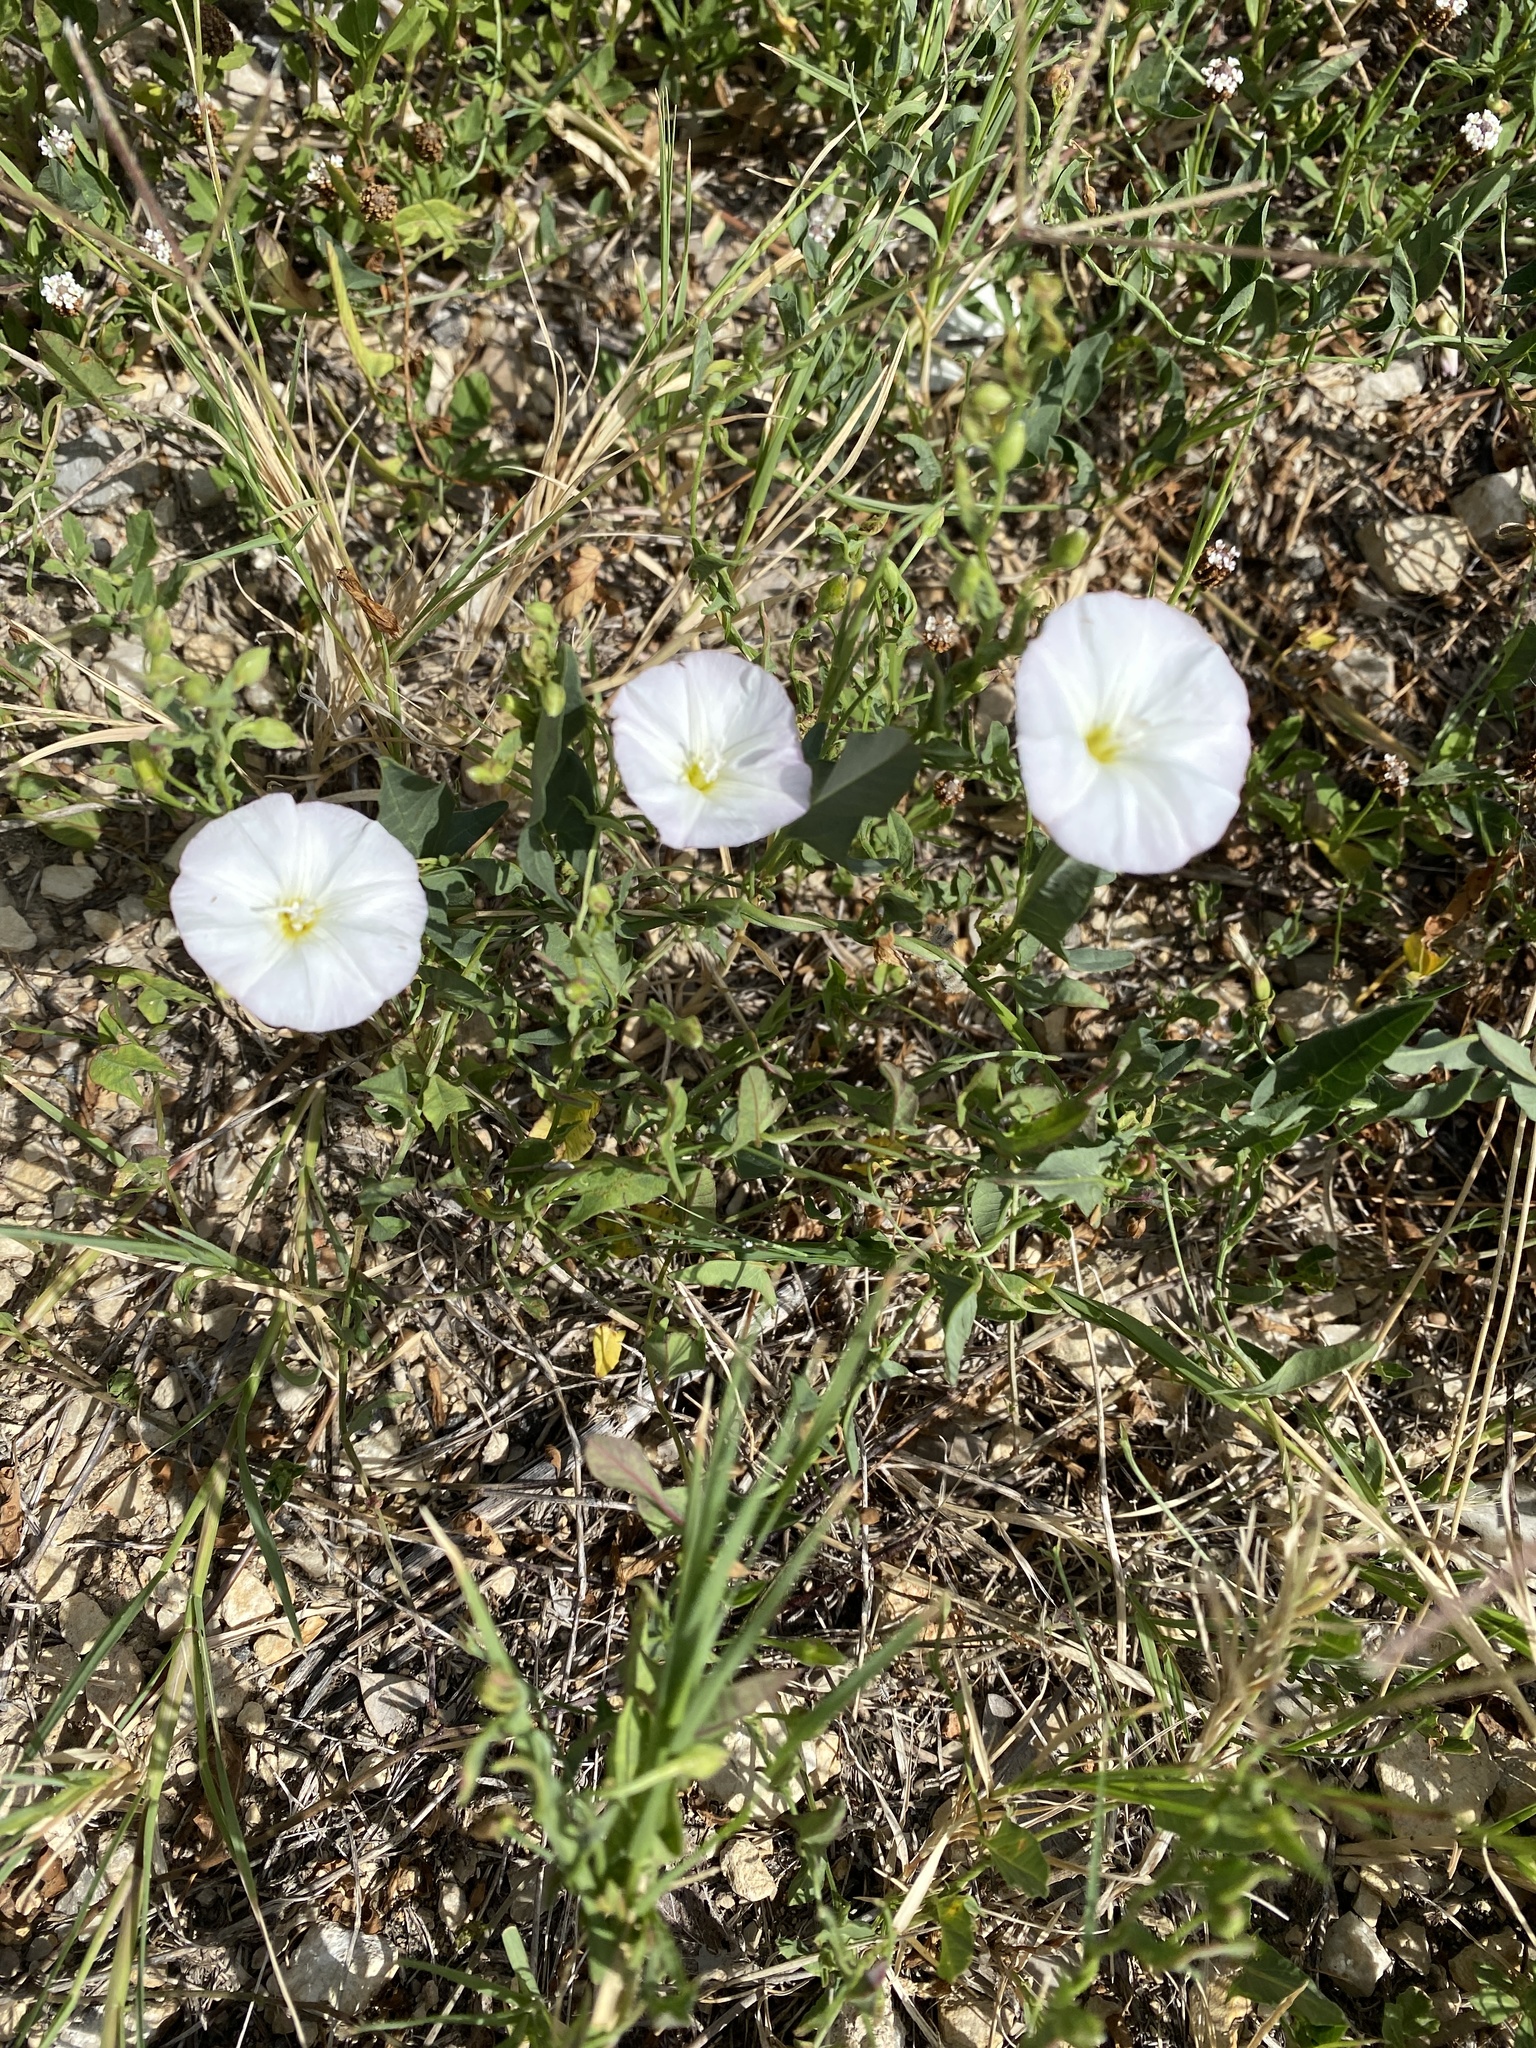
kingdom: Plantae
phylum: Tracheophyta
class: Magnoliopsida
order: Solanales
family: Convolvulaceae
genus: Convolvulus
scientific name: Convolvulus arvensis
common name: Field bindweed
